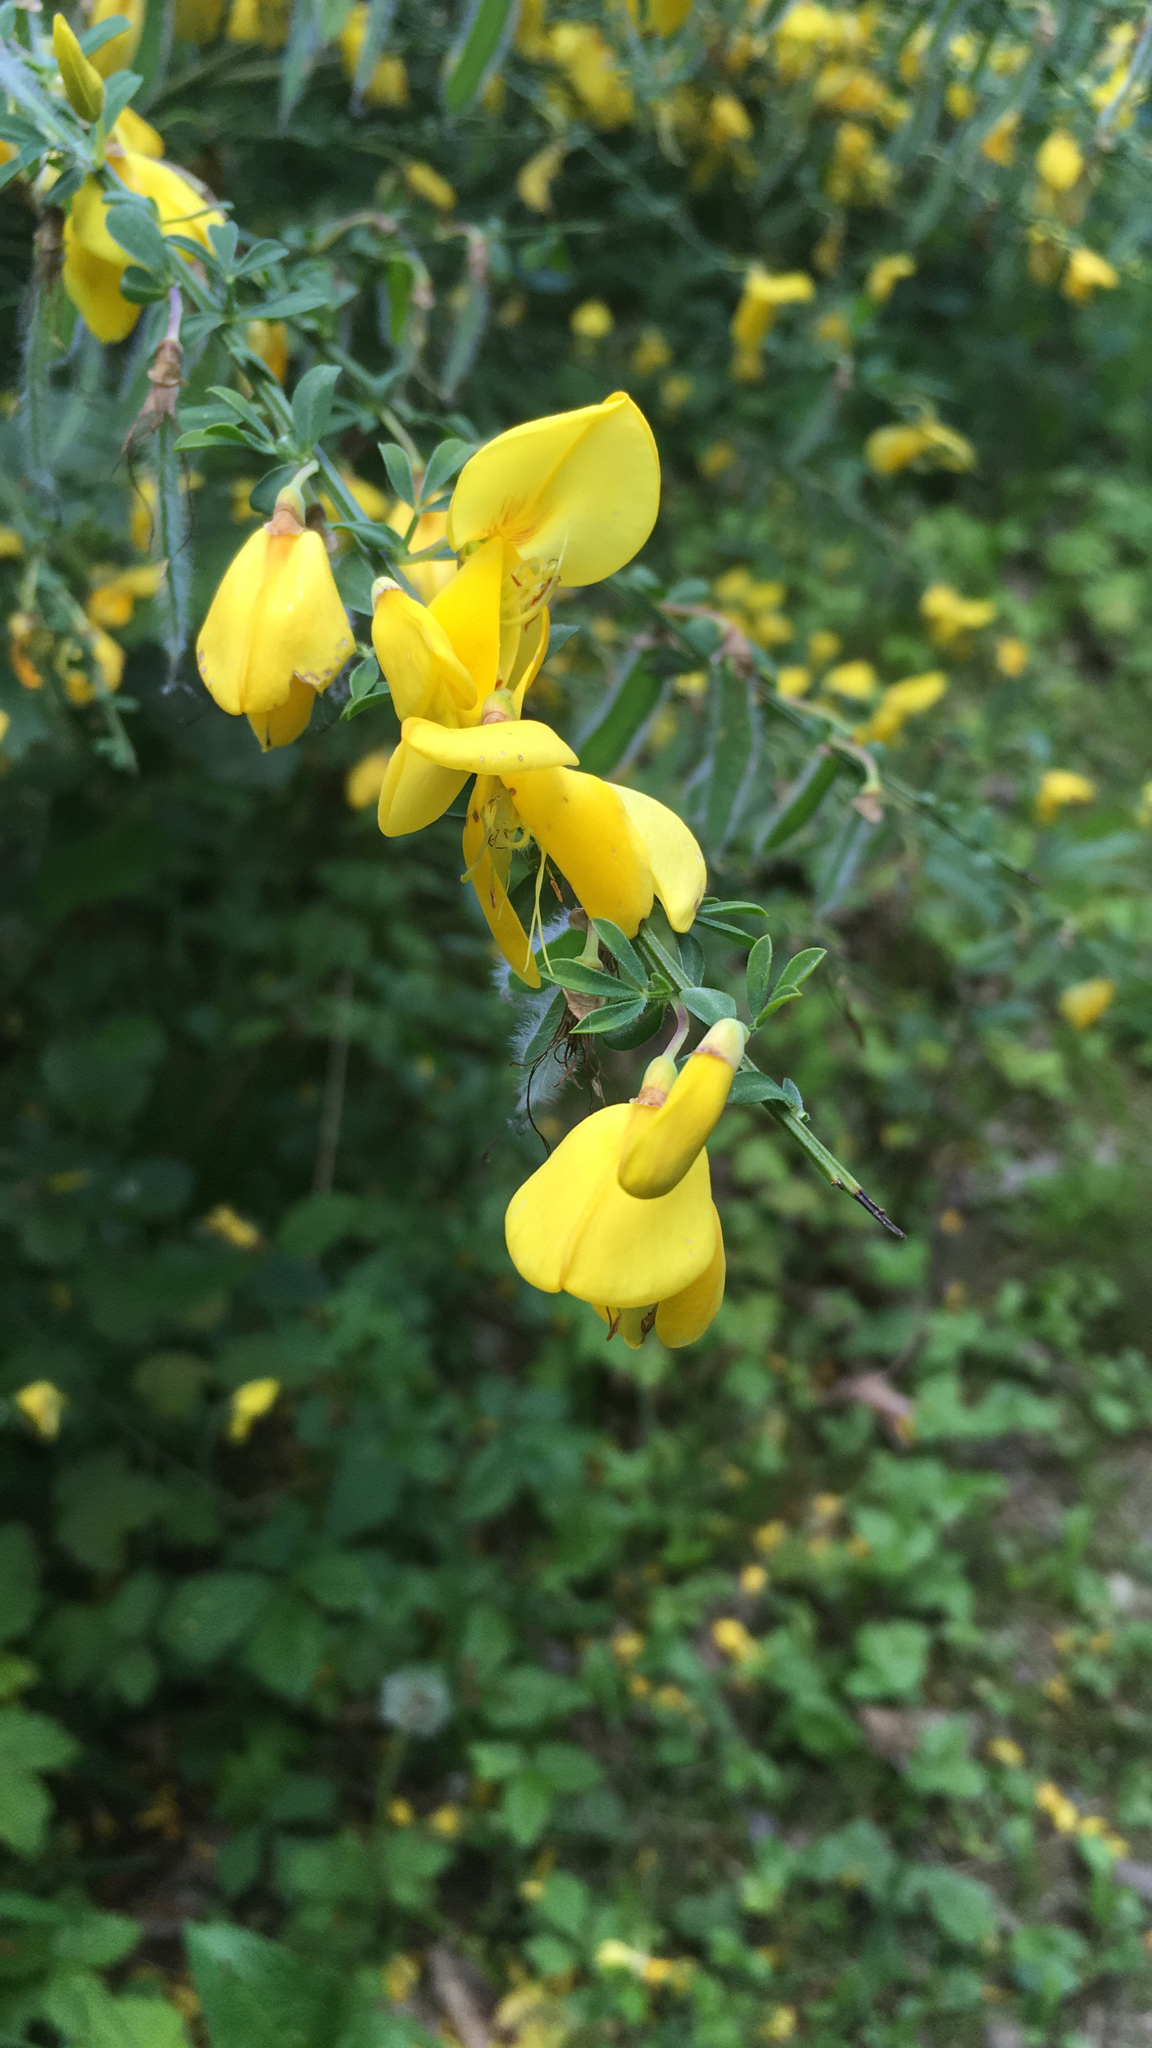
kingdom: Plantae
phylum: Tracheophyta
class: Magnoliopsida
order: Fabales
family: Fabaceae
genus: Cytisus
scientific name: Cytisus scoparius
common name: Scotch broom
